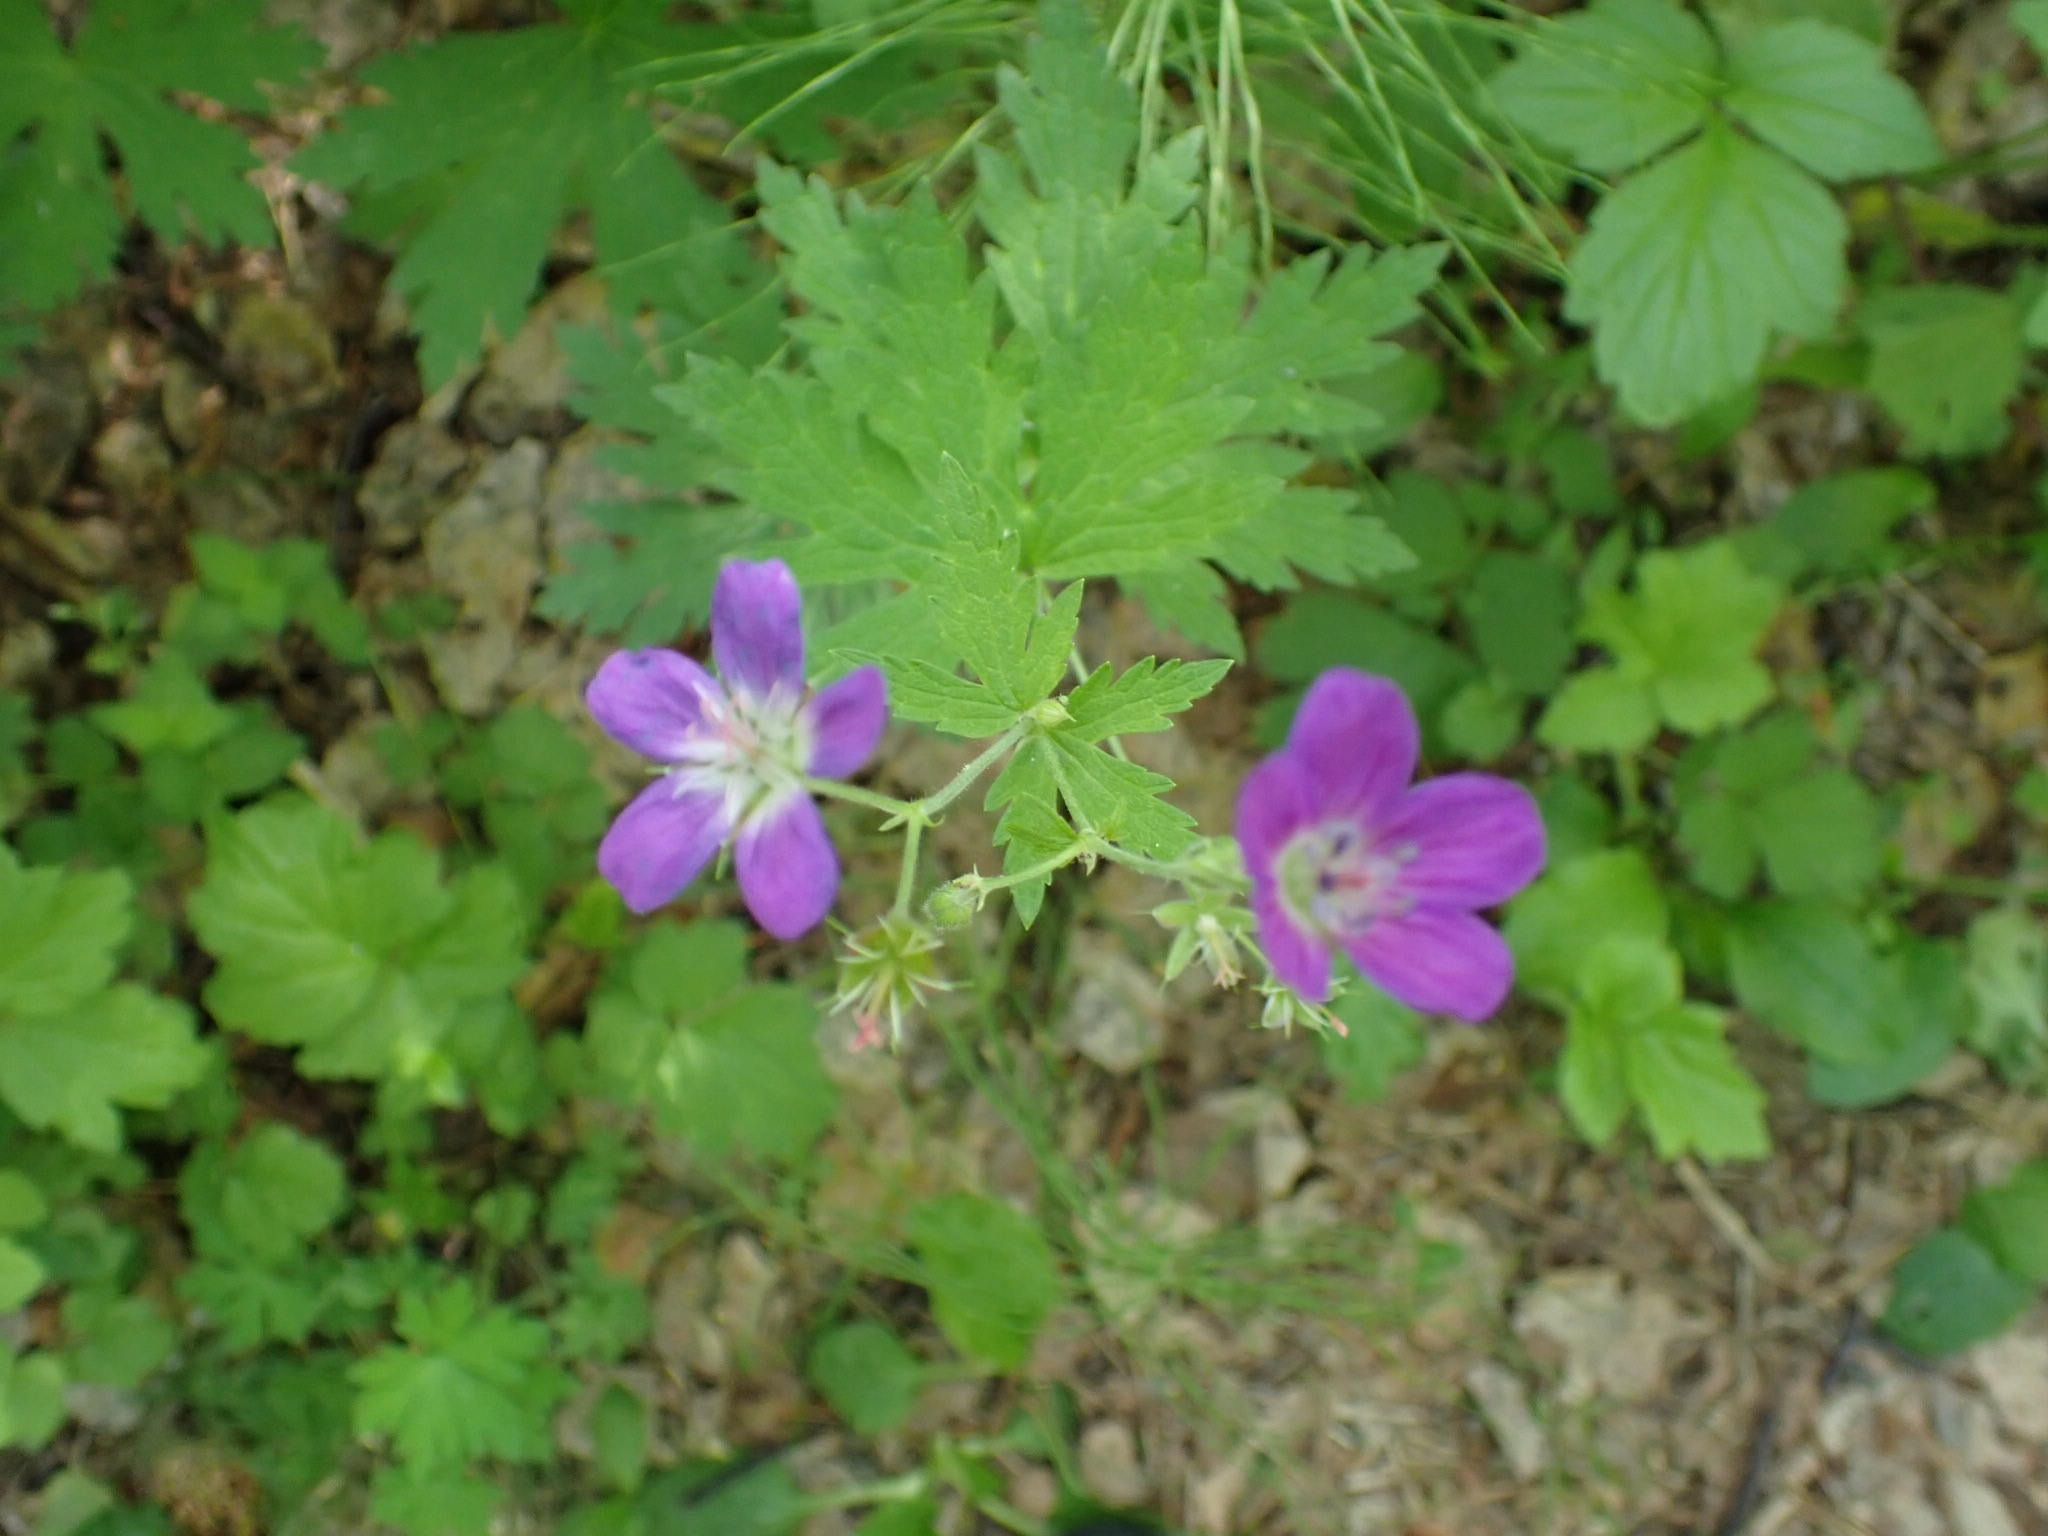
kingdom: Plantae
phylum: Tracheophyta
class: Magnoliopsida
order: Geraniales
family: Geraniaceae
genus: Geranium
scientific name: Geranium sylvaticum
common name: Wood crane's-bill
